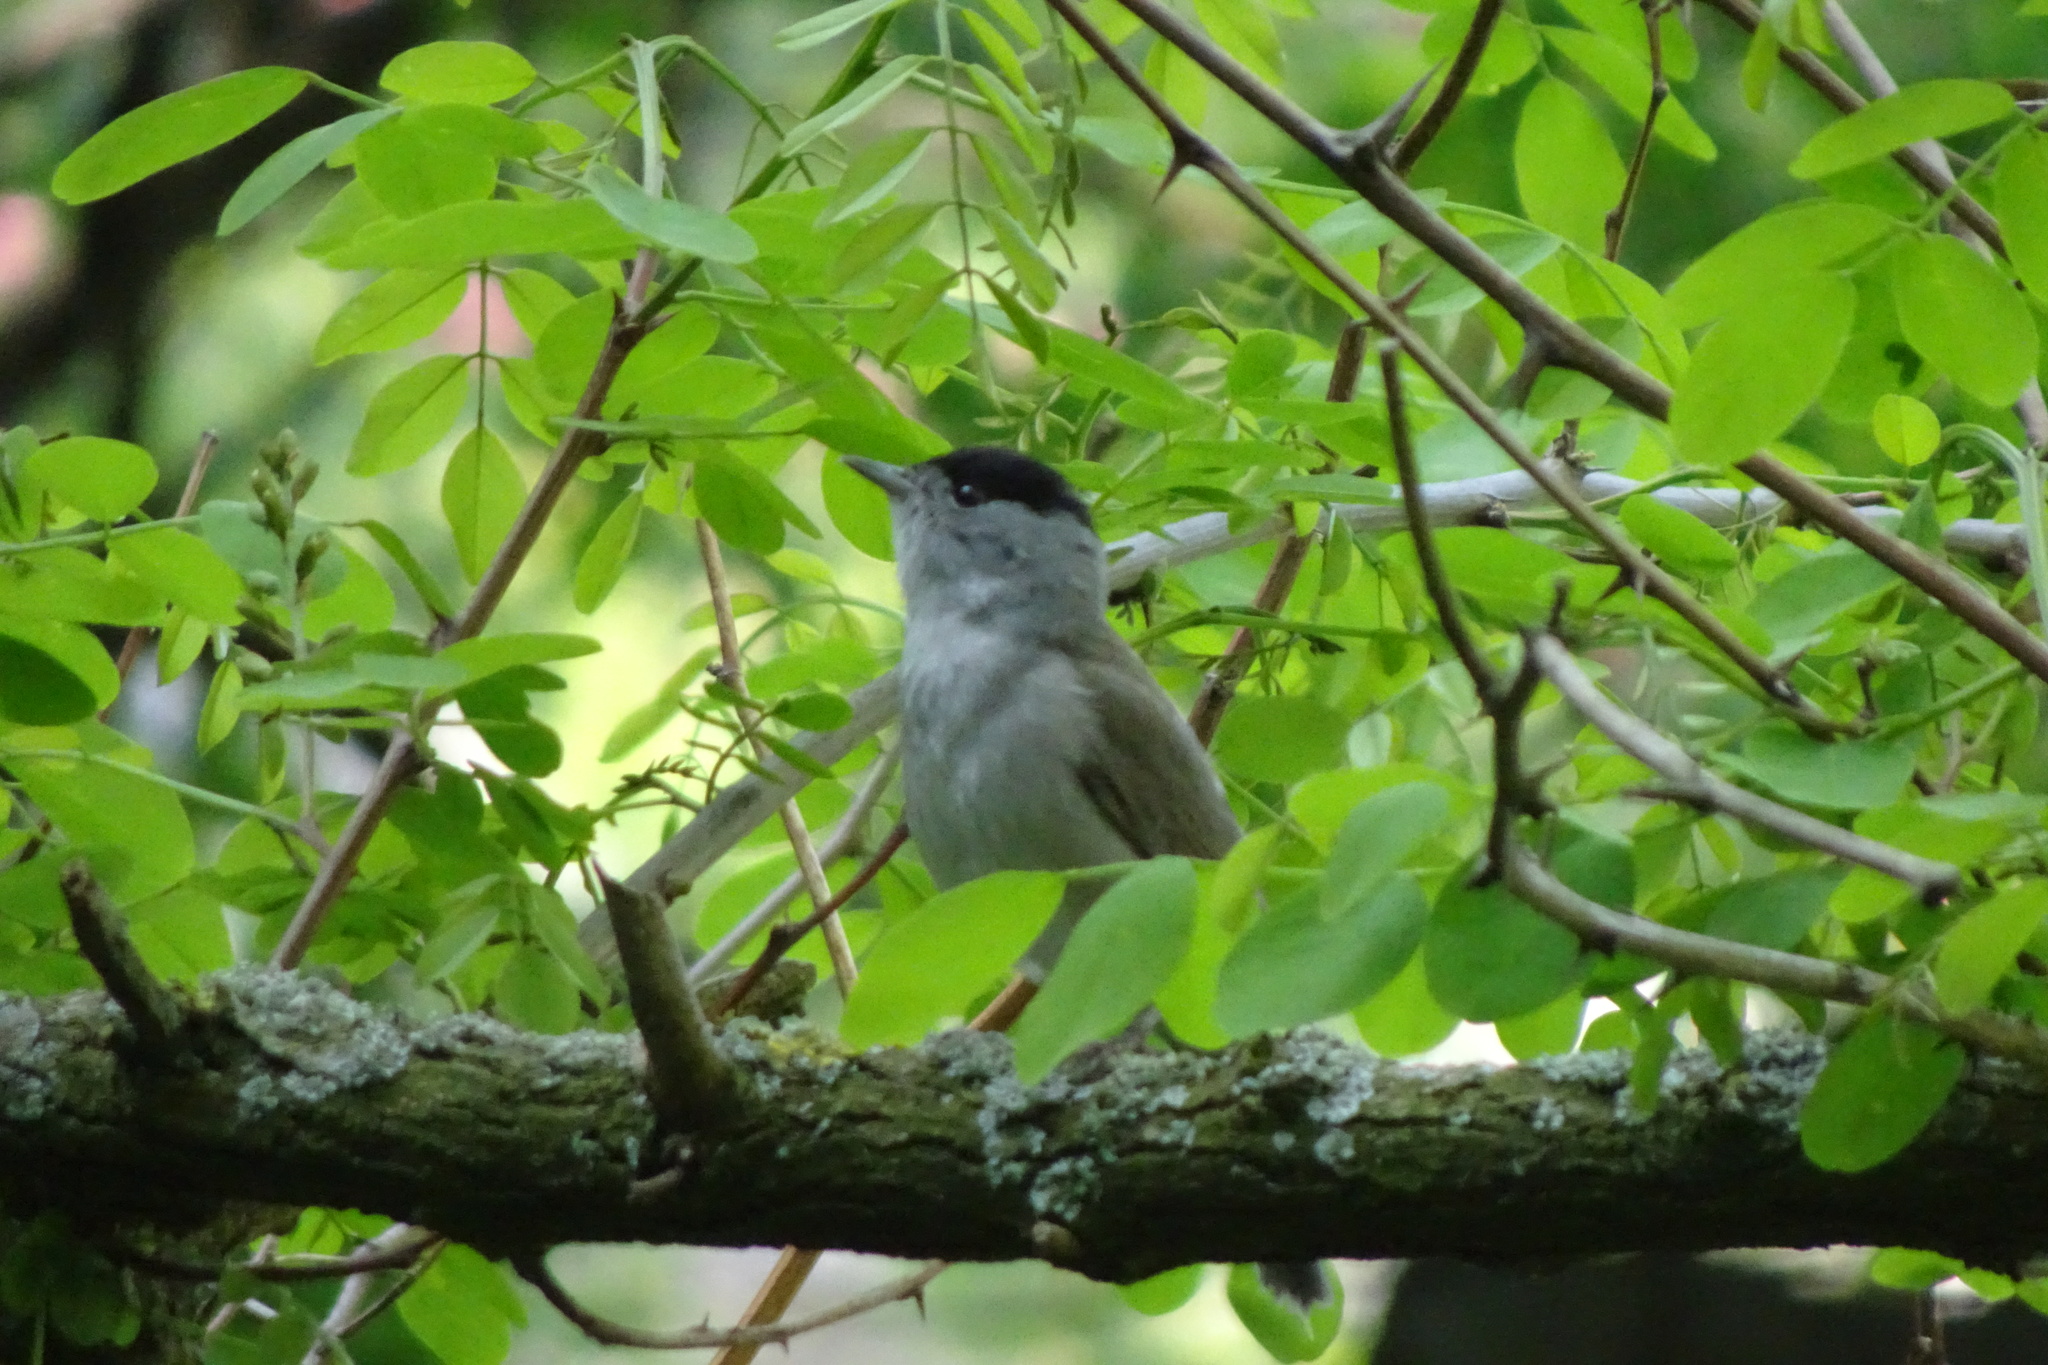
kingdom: Animalia
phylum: Chordata
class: Aves
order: Passeriformes
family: Sylviidae
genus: Sylvia
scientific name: Sylvia atricapilla
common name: Eurasian blackcap
